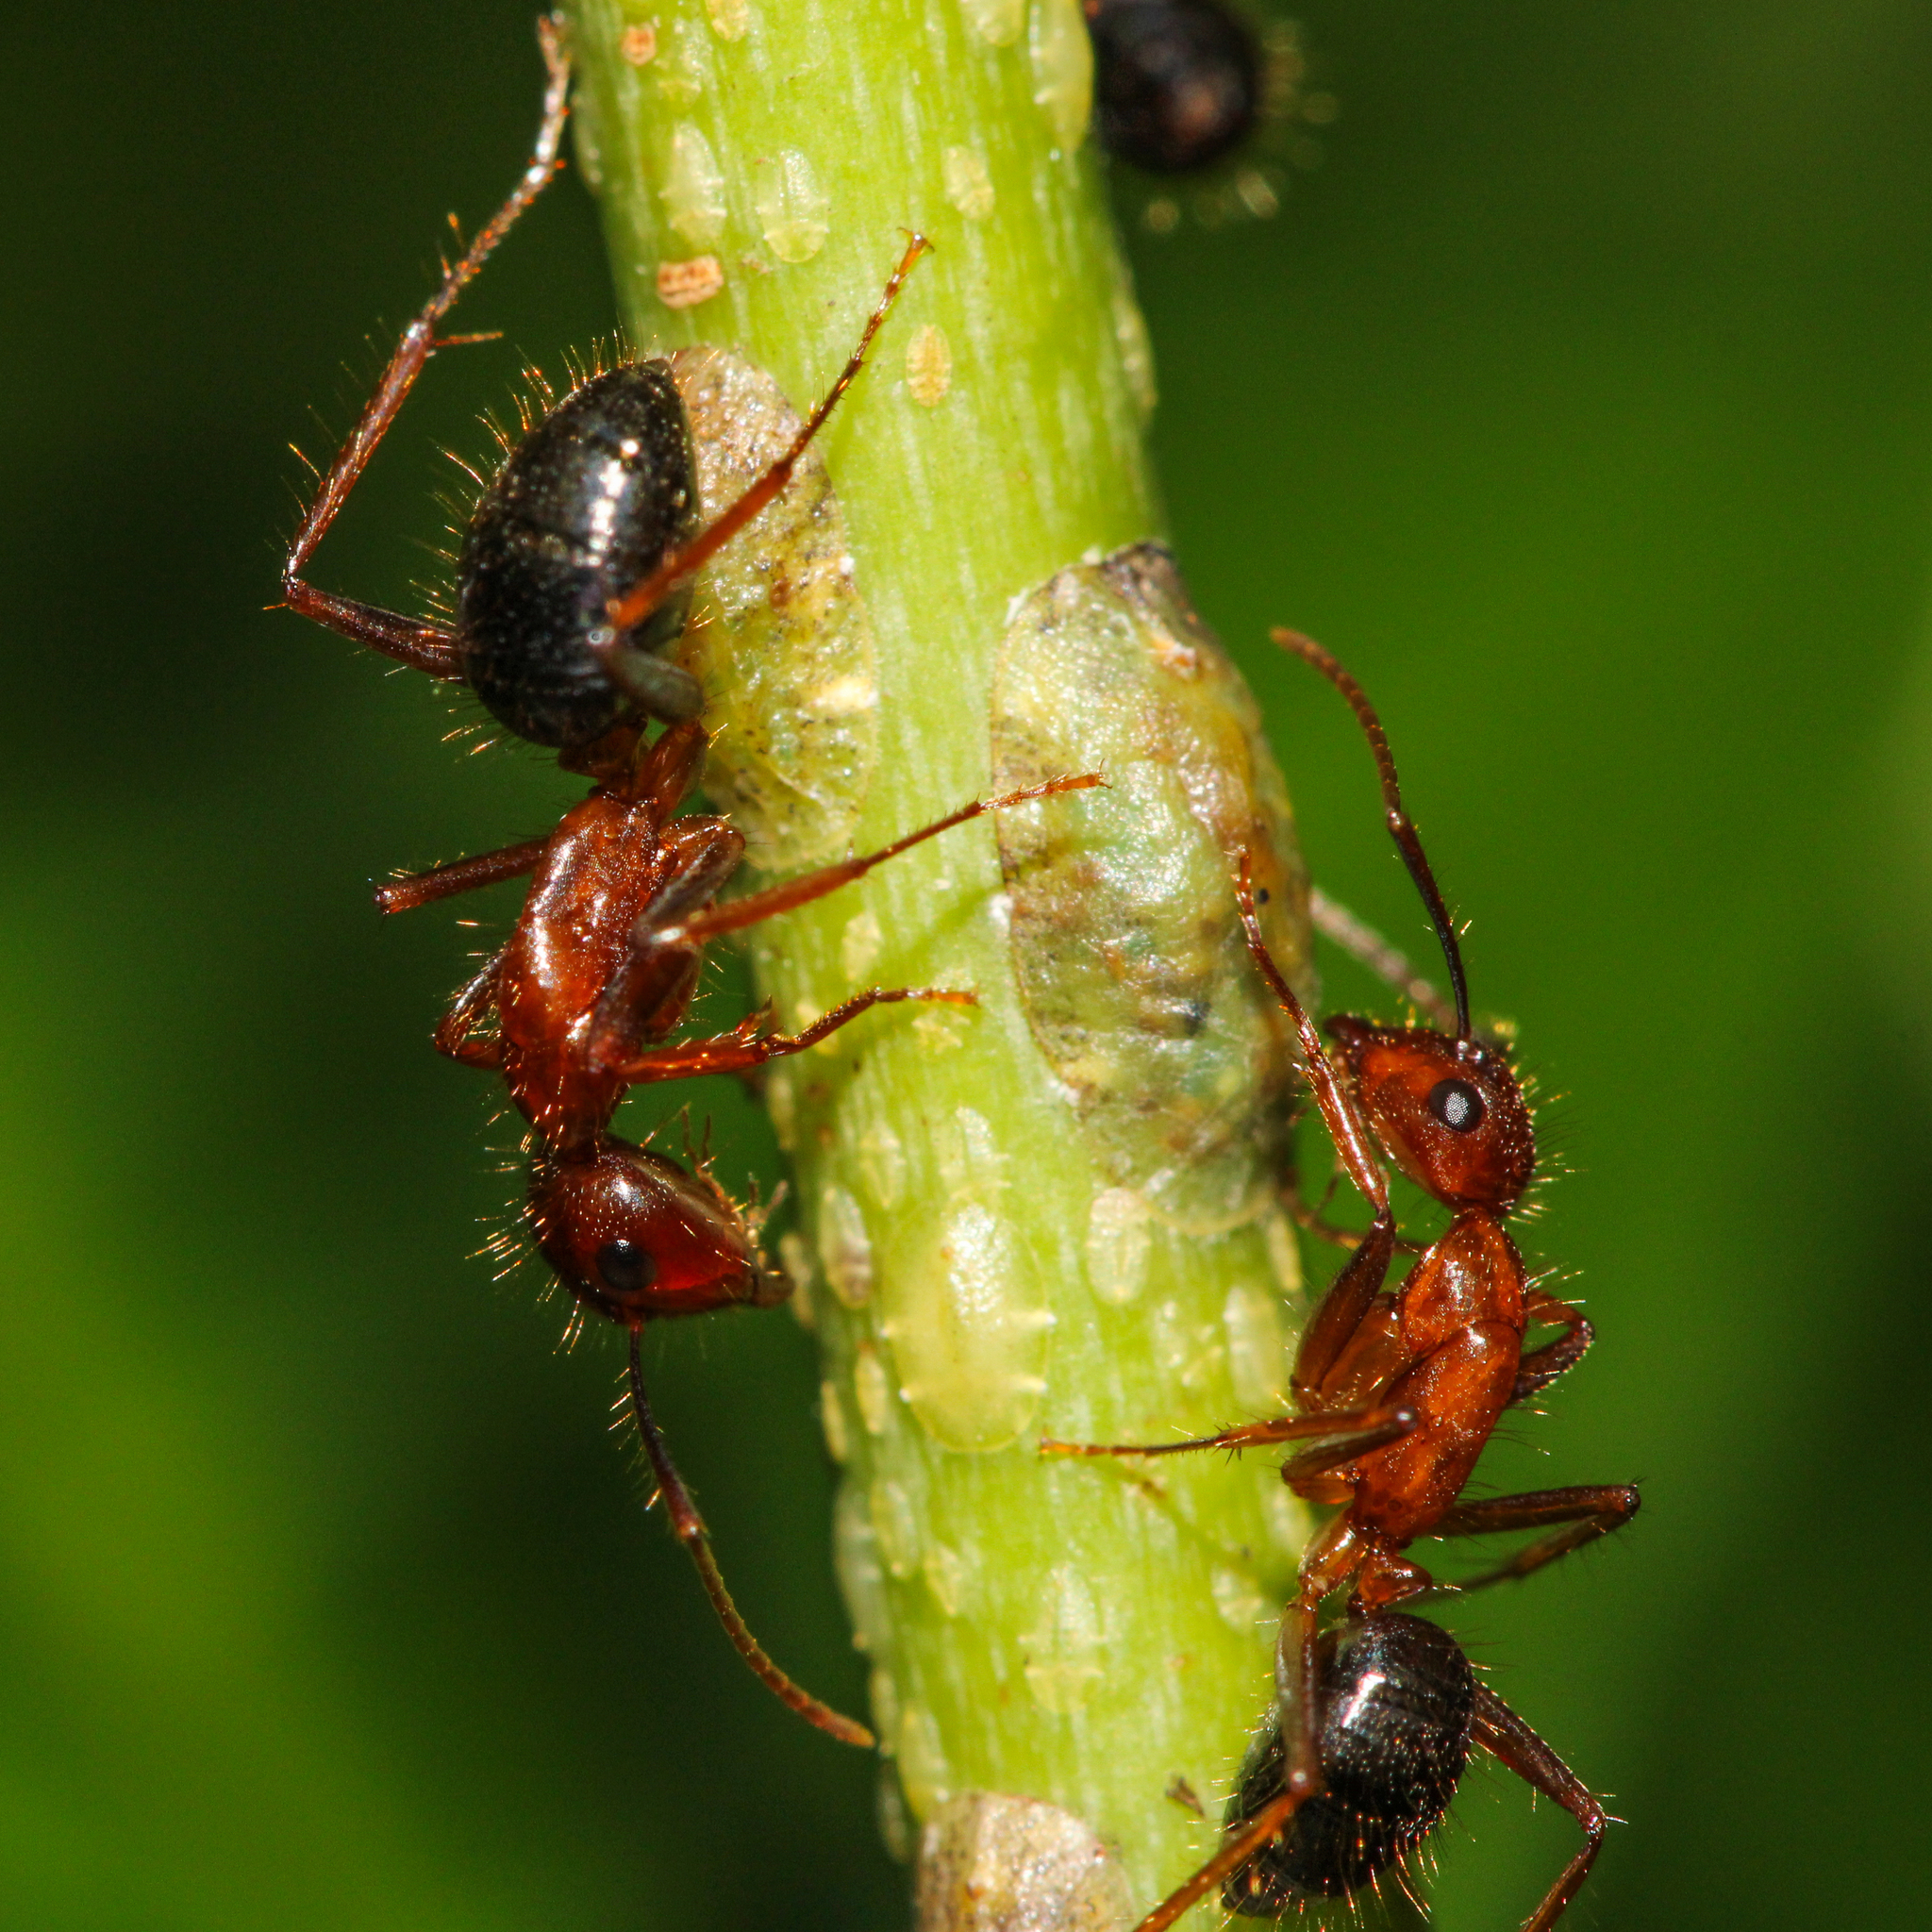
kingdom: Animalia
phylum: Arthropoda
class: Insecta
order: Hymenoptera
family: Formicidae
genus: Camponotus
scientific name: Camponotus floridanus
